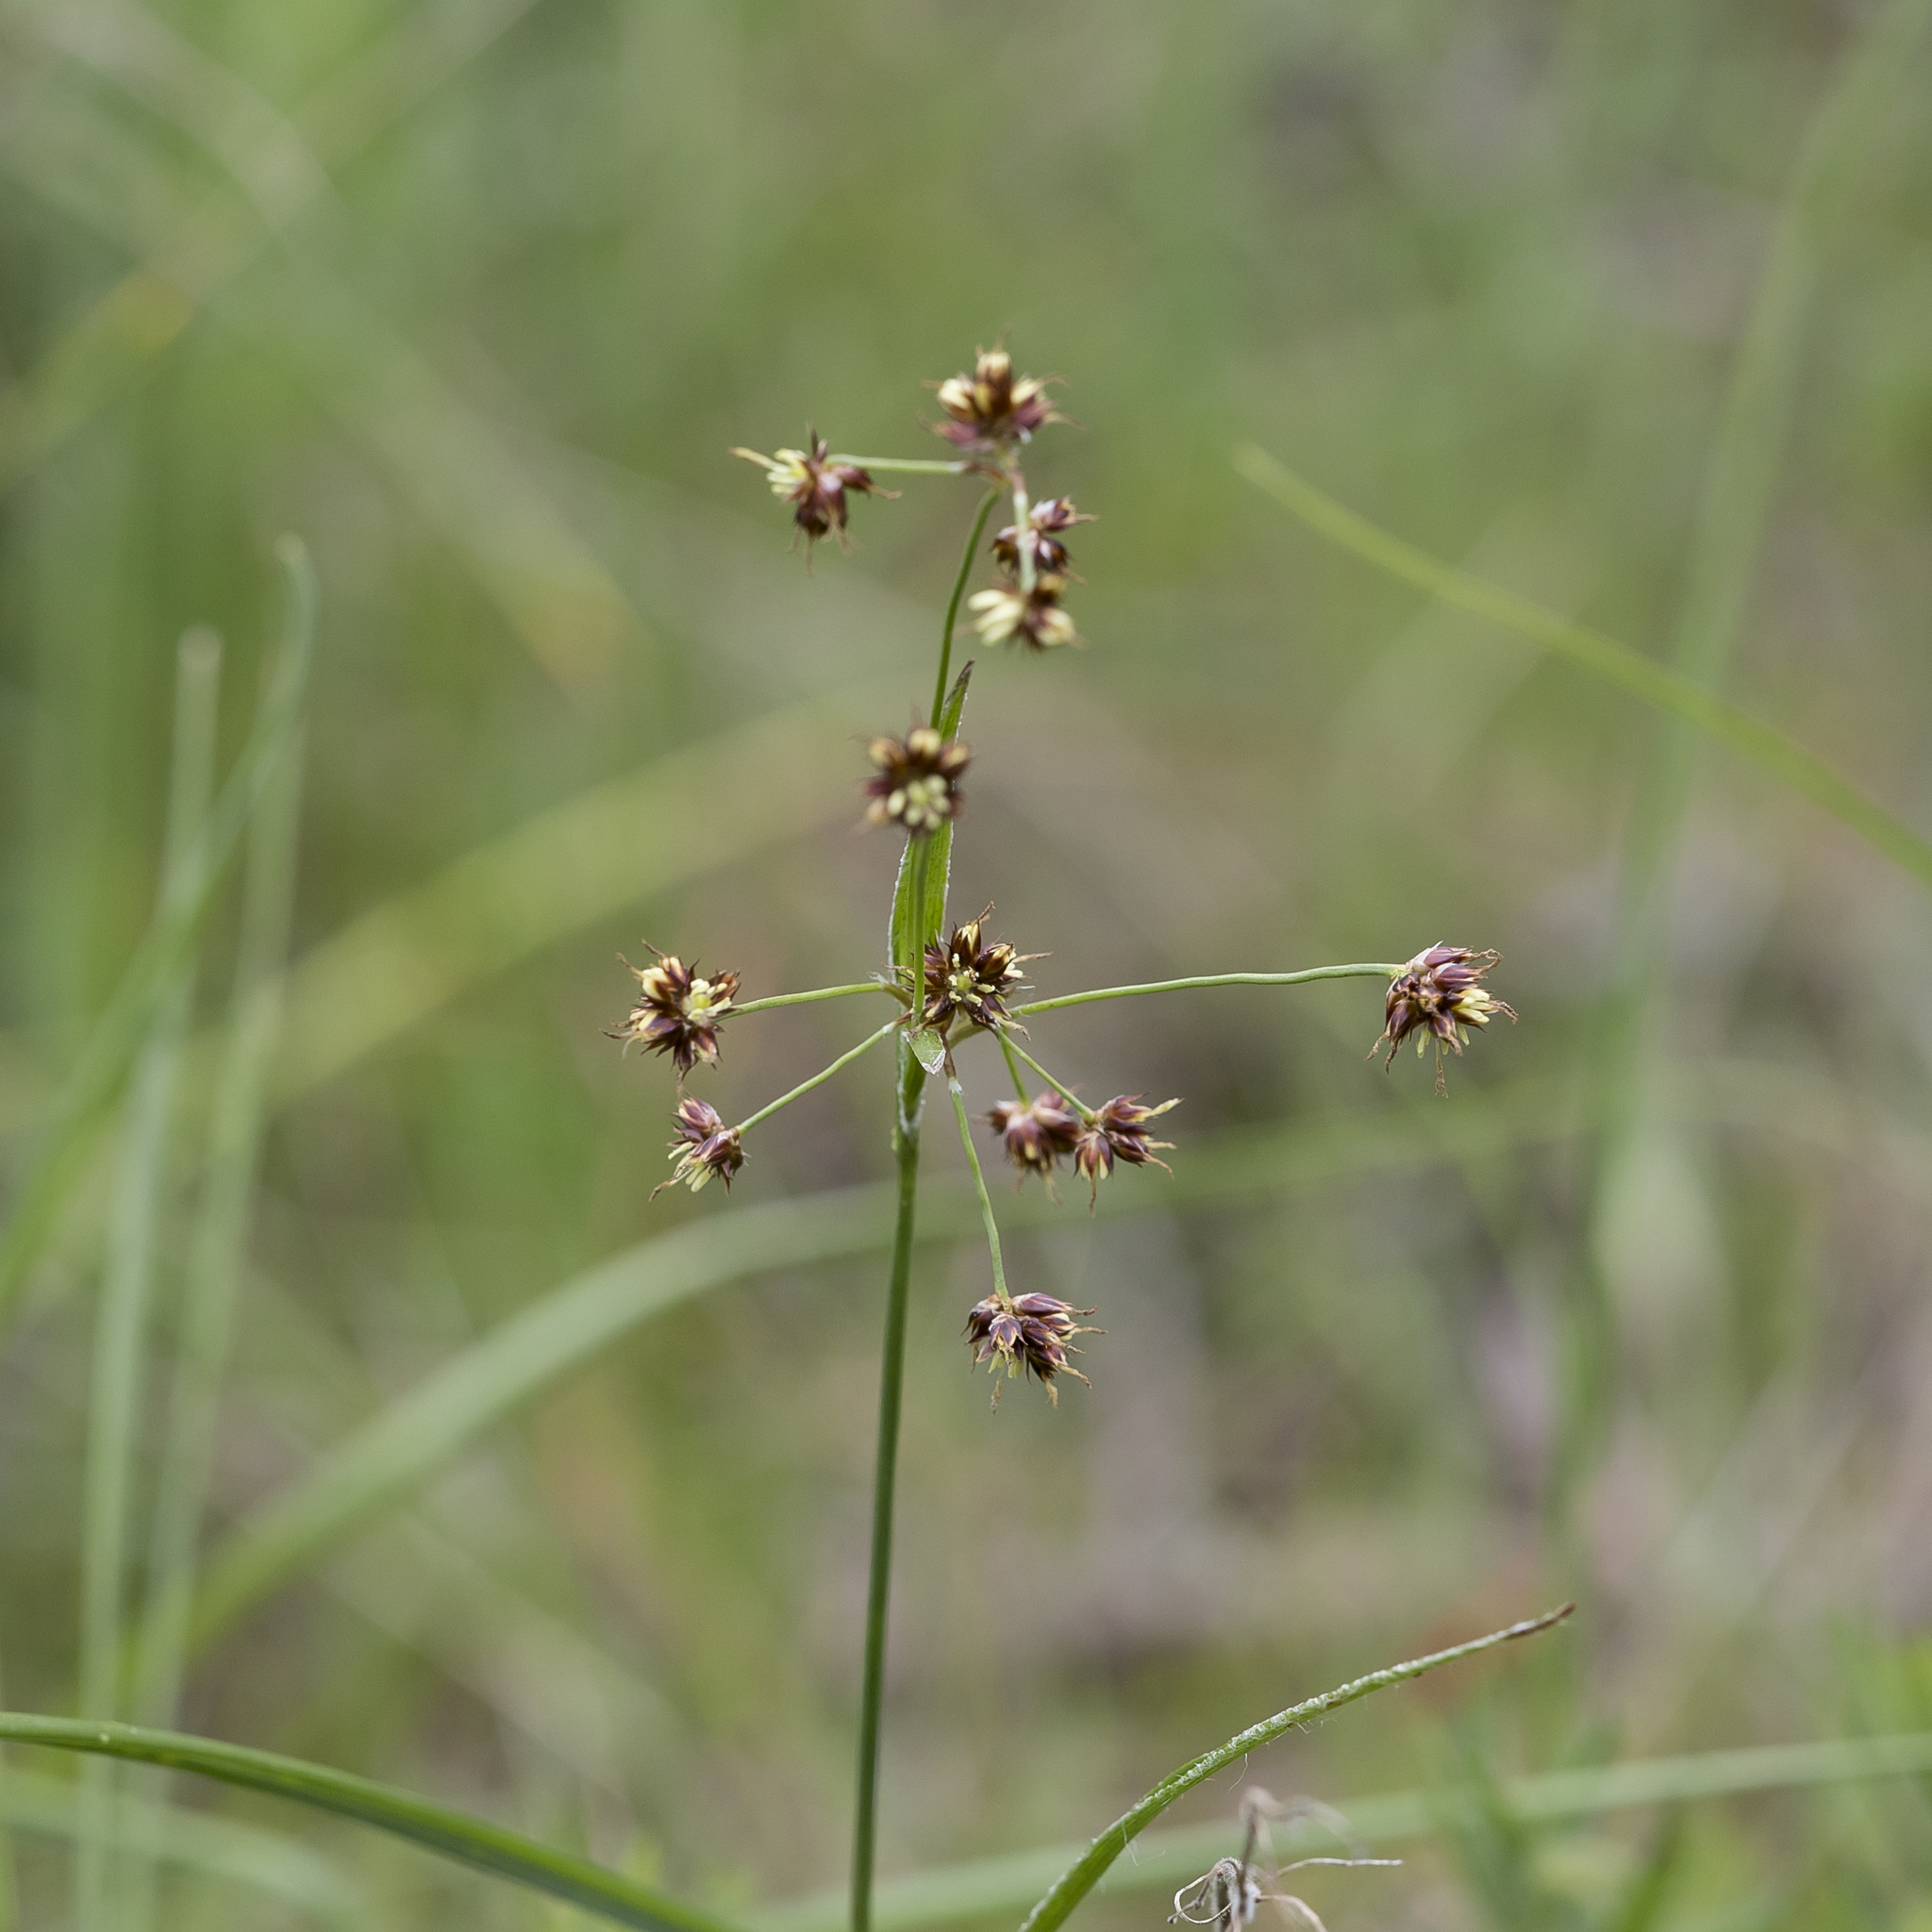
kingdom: Plantae
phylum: Tracheophyta
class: Liliopsida
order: Poales
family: Juncaceae
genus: Luzula
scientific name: Luzula meridionalis
